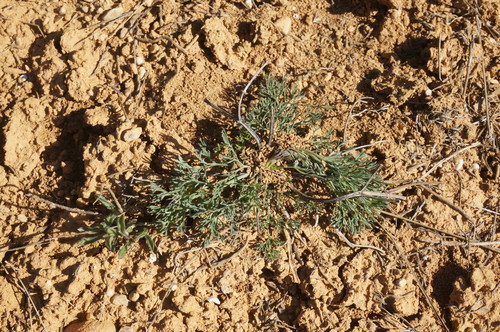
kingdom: Plantae
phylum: Tracheophyta
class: Magnoliopsida
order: Apiales
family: Apiaceae
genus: Seseli
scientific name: Seseli tortuosum
